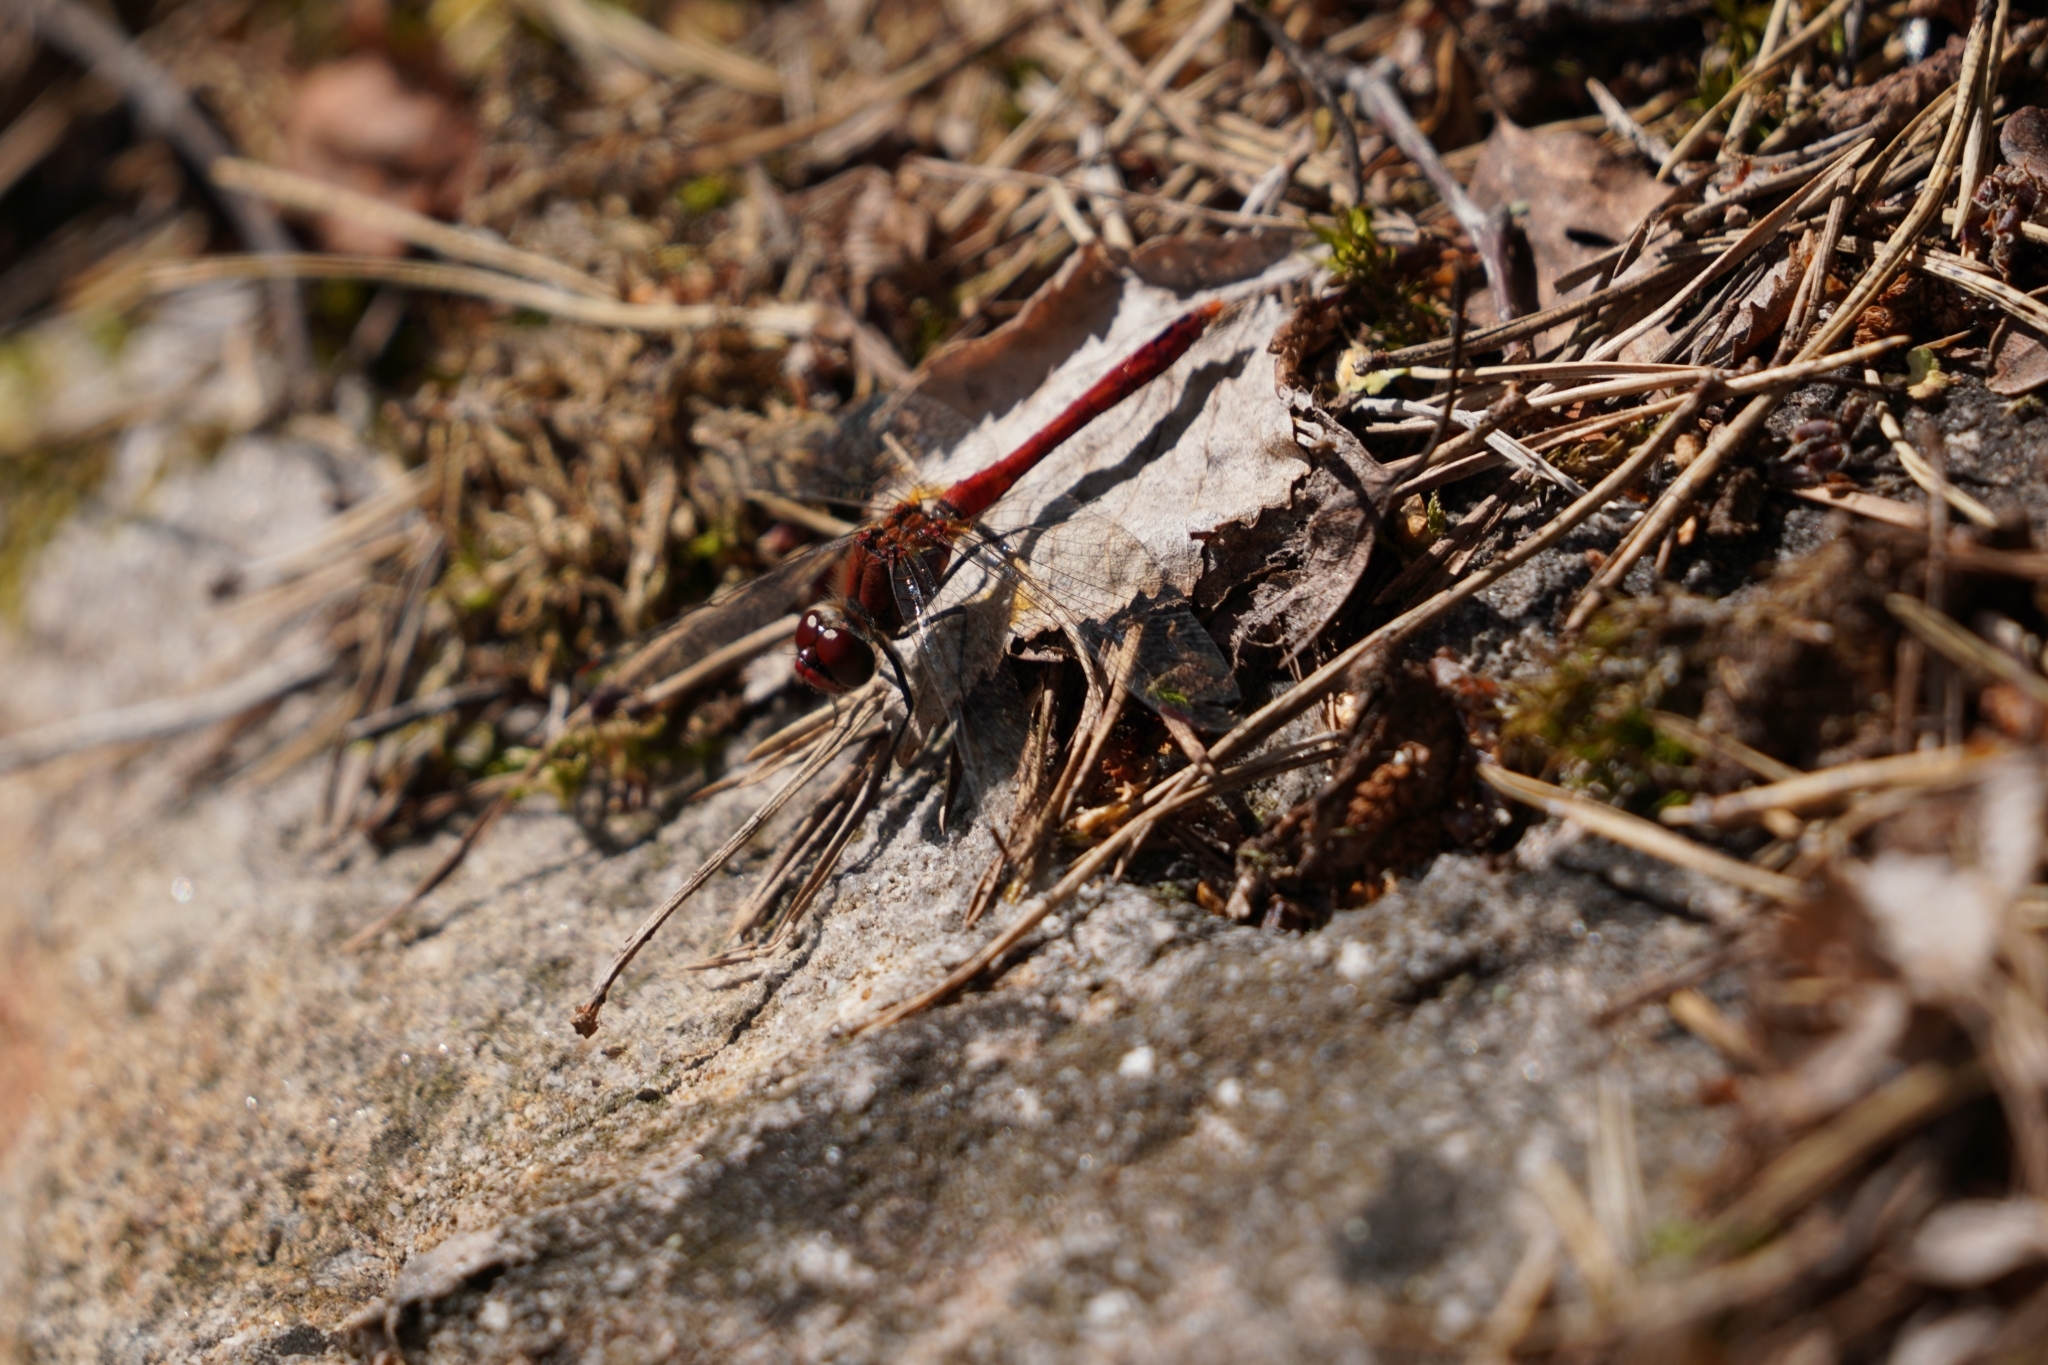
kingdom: Animalia
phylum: Arthropoda
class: Insecta
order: Odonata
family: Libellulidae
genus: Sympetrum
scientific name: Sympetrum sanguineum
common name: Ruddy darter
